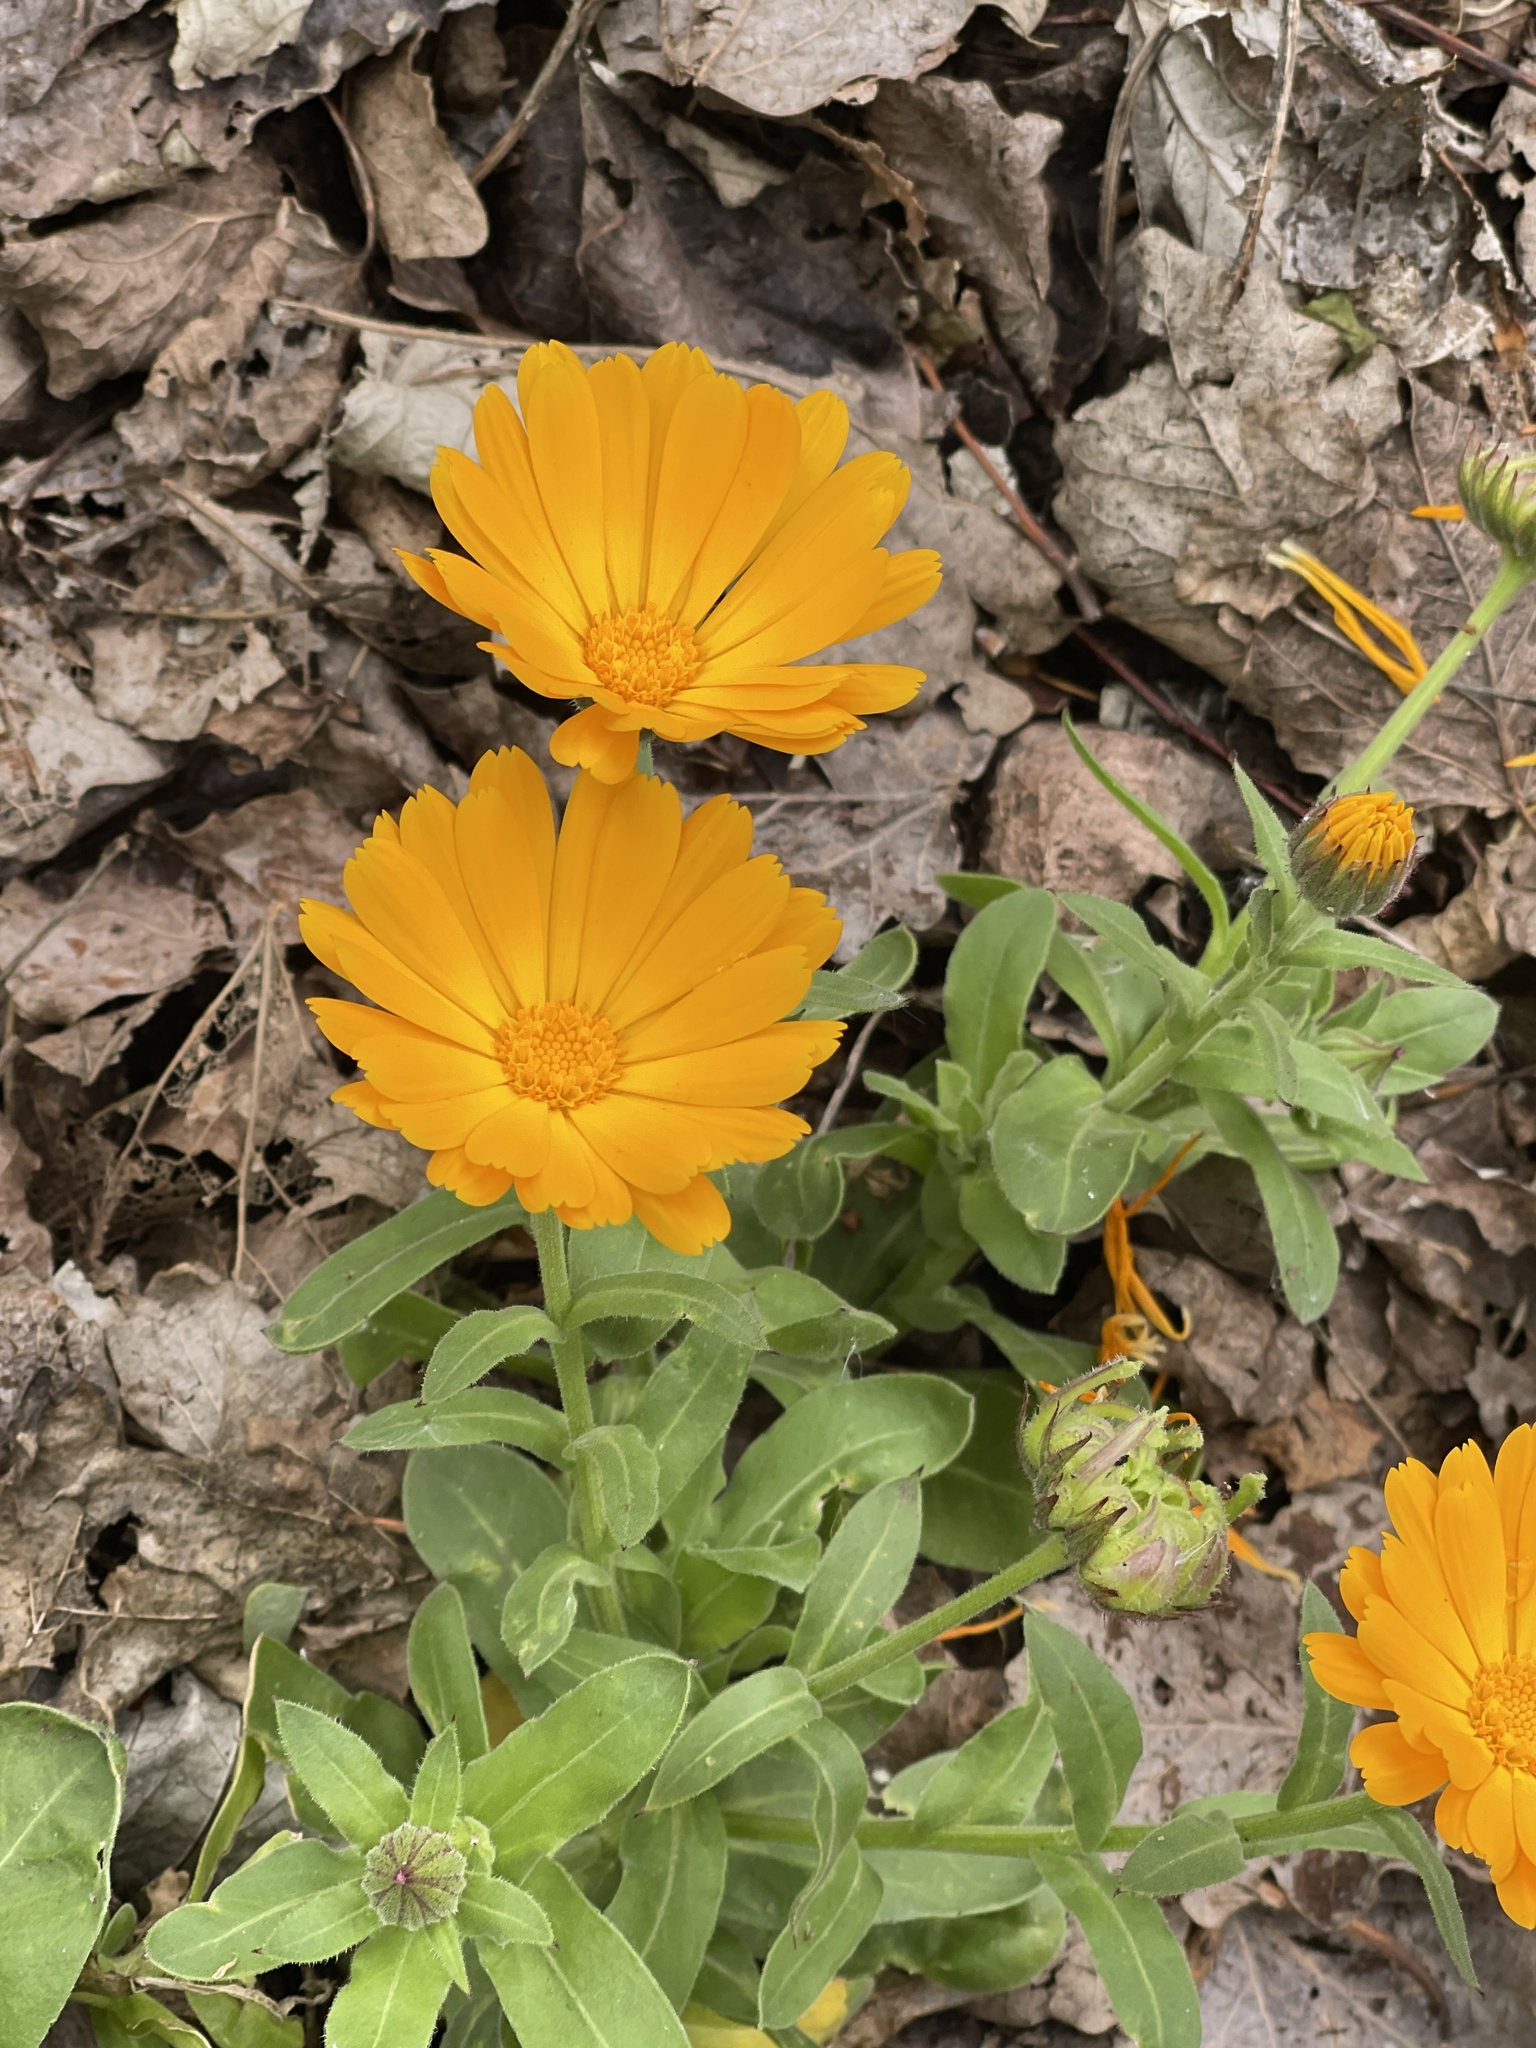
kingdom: Plantae
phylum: Tracheophyta
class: Magnoliopsida
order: Asterales
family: Asteraceae
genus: Calendula
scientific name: Calendula officinalis
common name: Pot marigold
